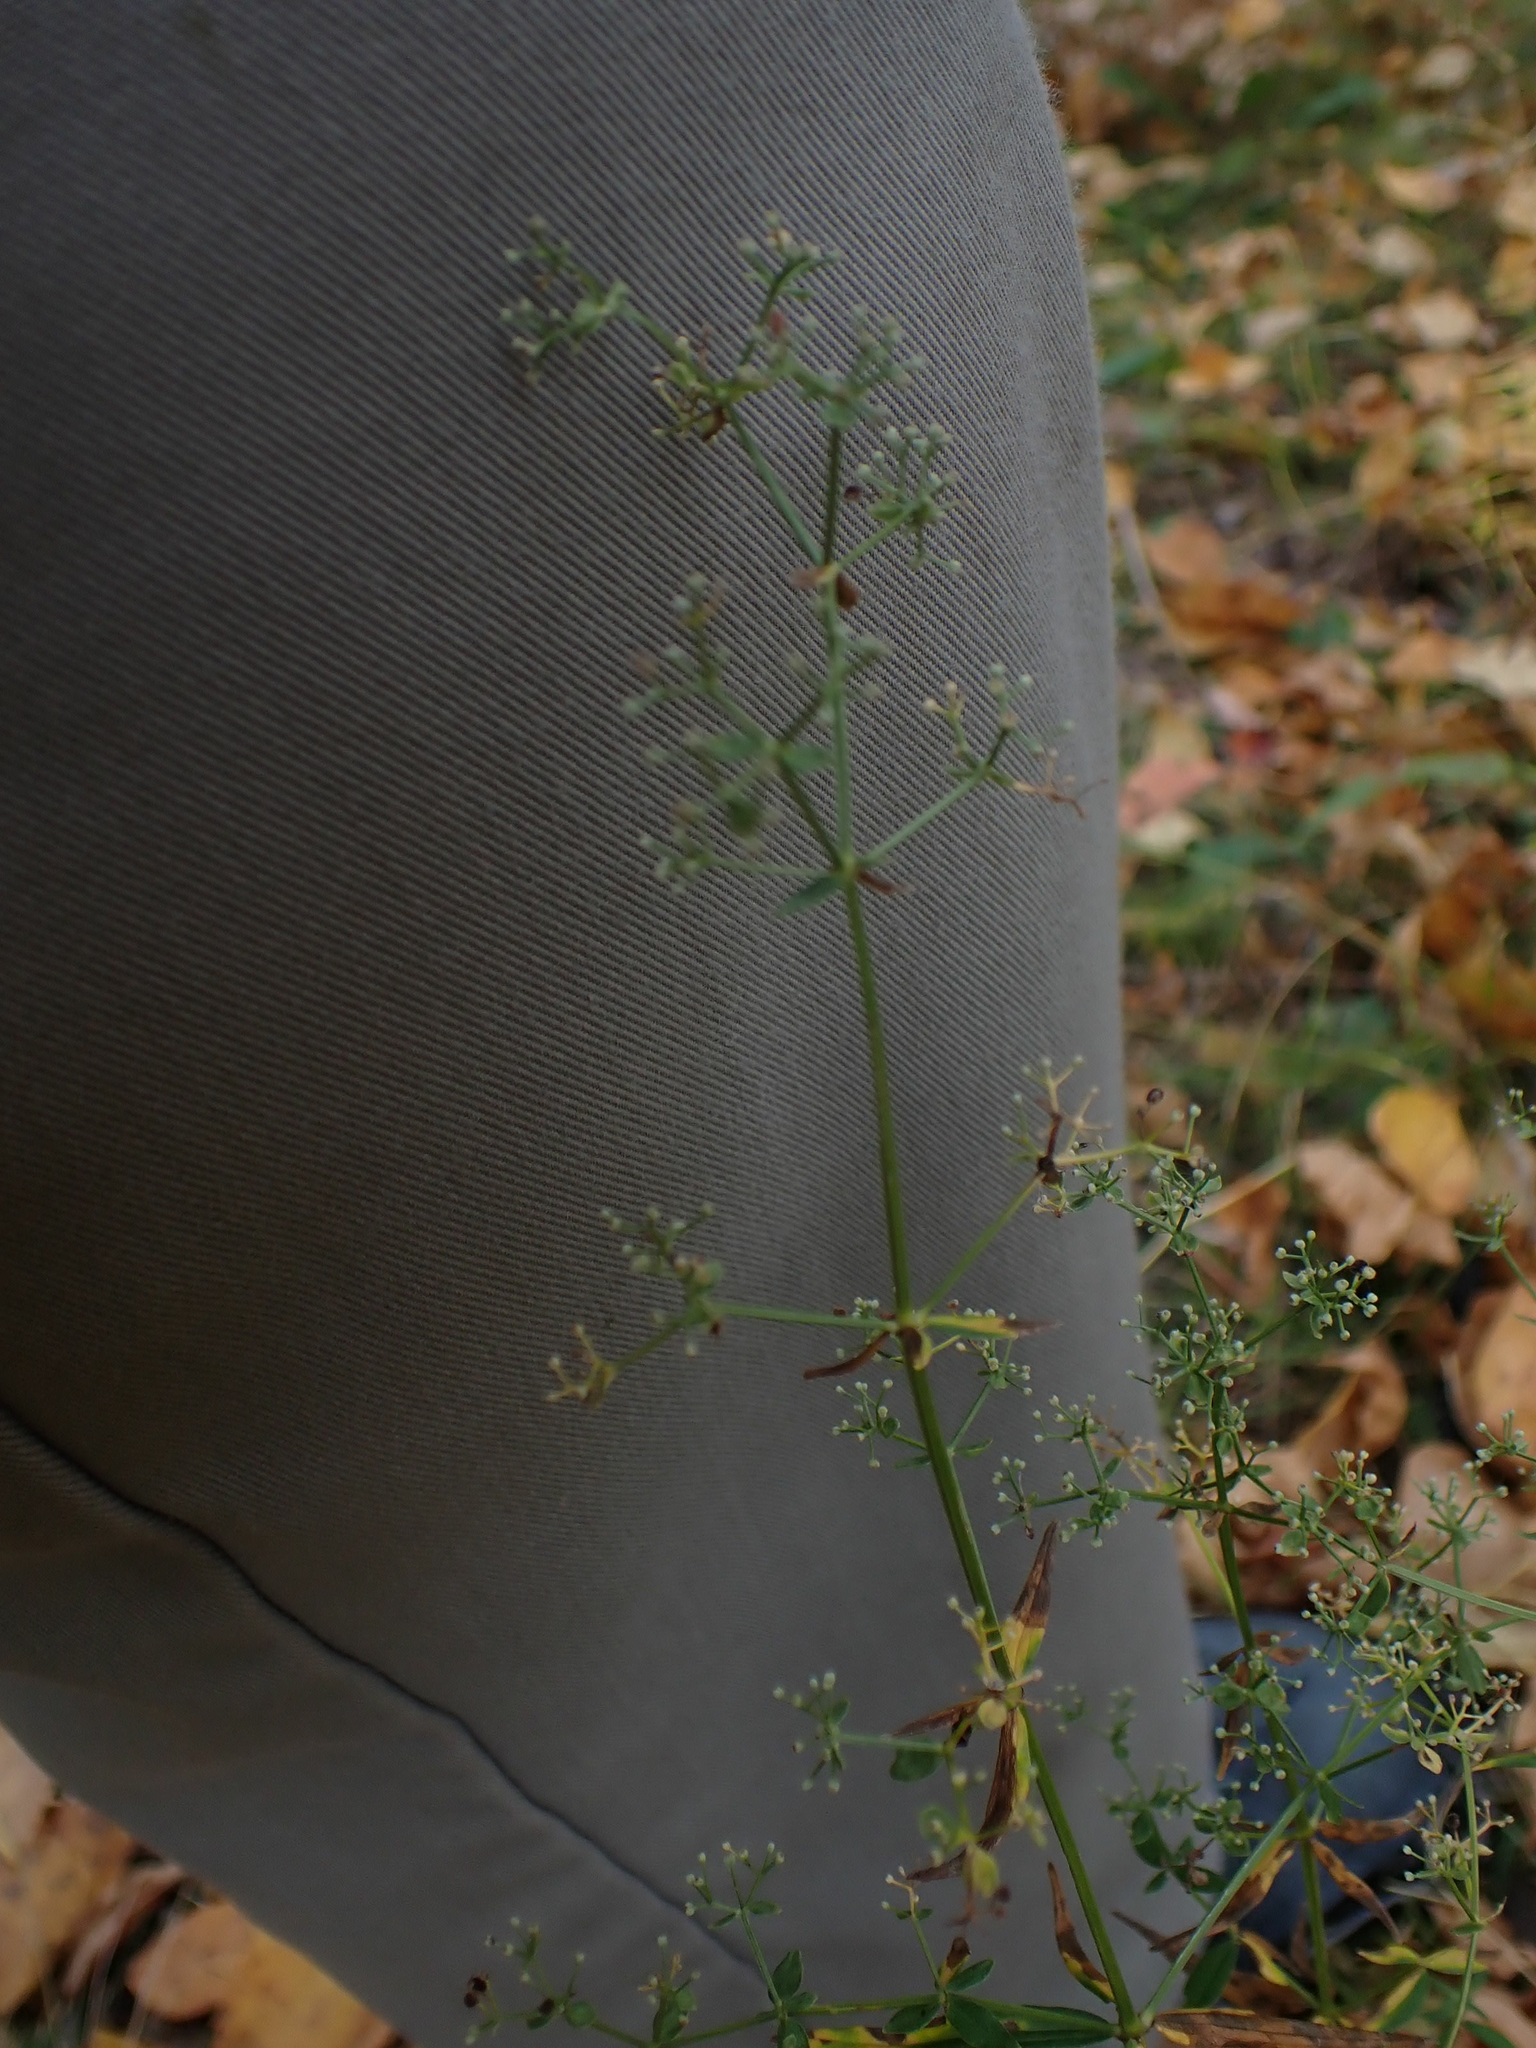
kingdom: Plantae
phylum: Tracheophyta
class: Magnoliopsida
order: Gentianales
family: Rubiaceae
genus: Galium
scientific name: Galium boreale
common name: Northern bedstraw
